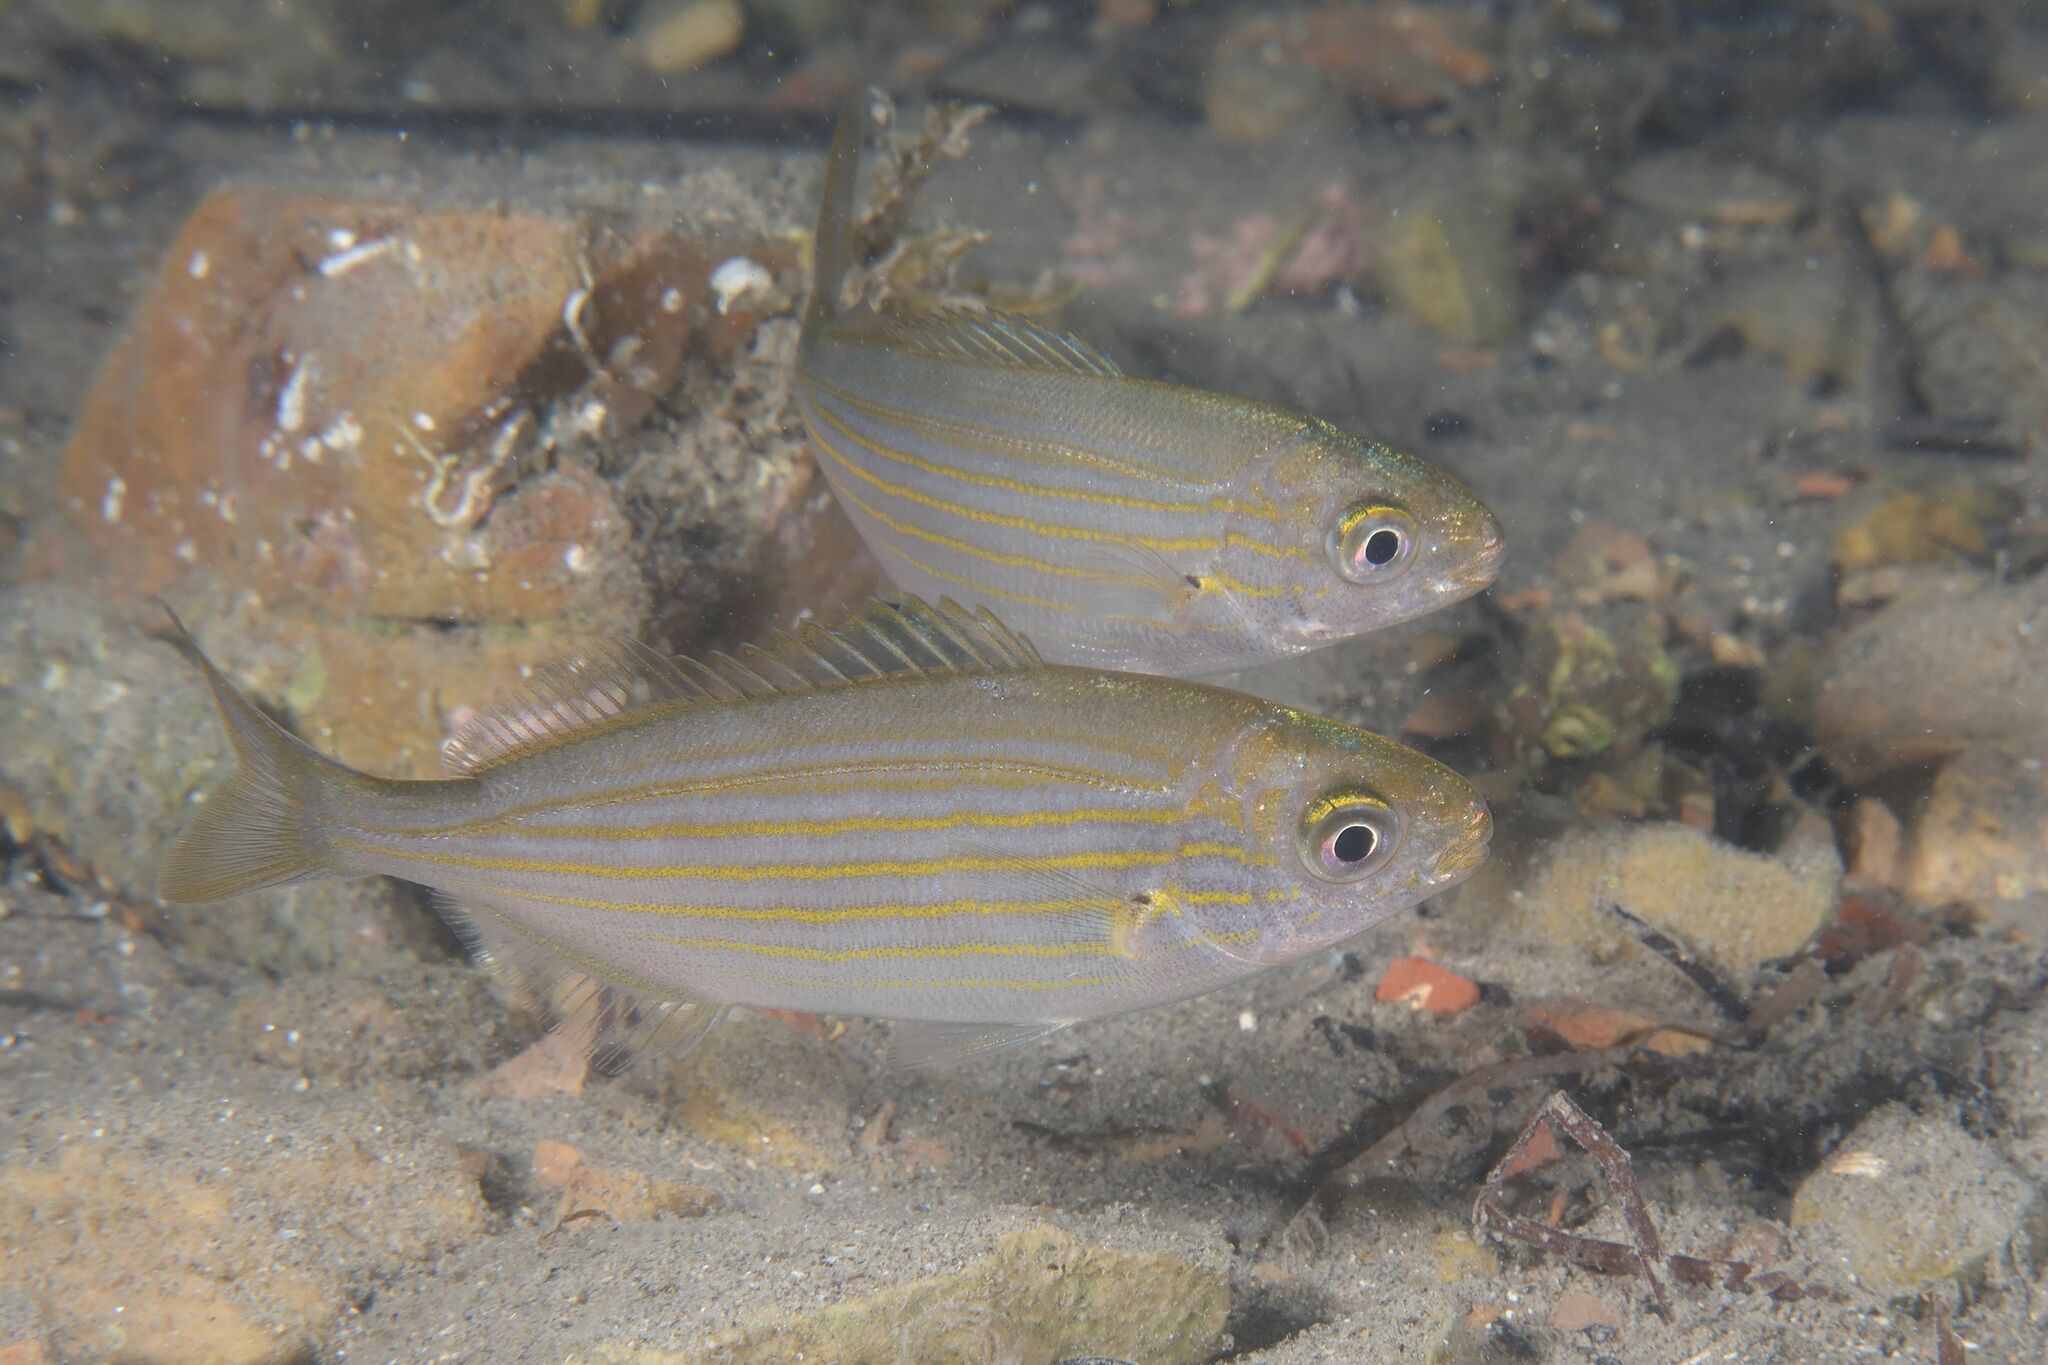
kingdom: Animalia
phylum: Chordata
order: Perciformes
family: Sparidae
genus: Sarpa
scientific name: Sarpa salpa
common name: Salema
